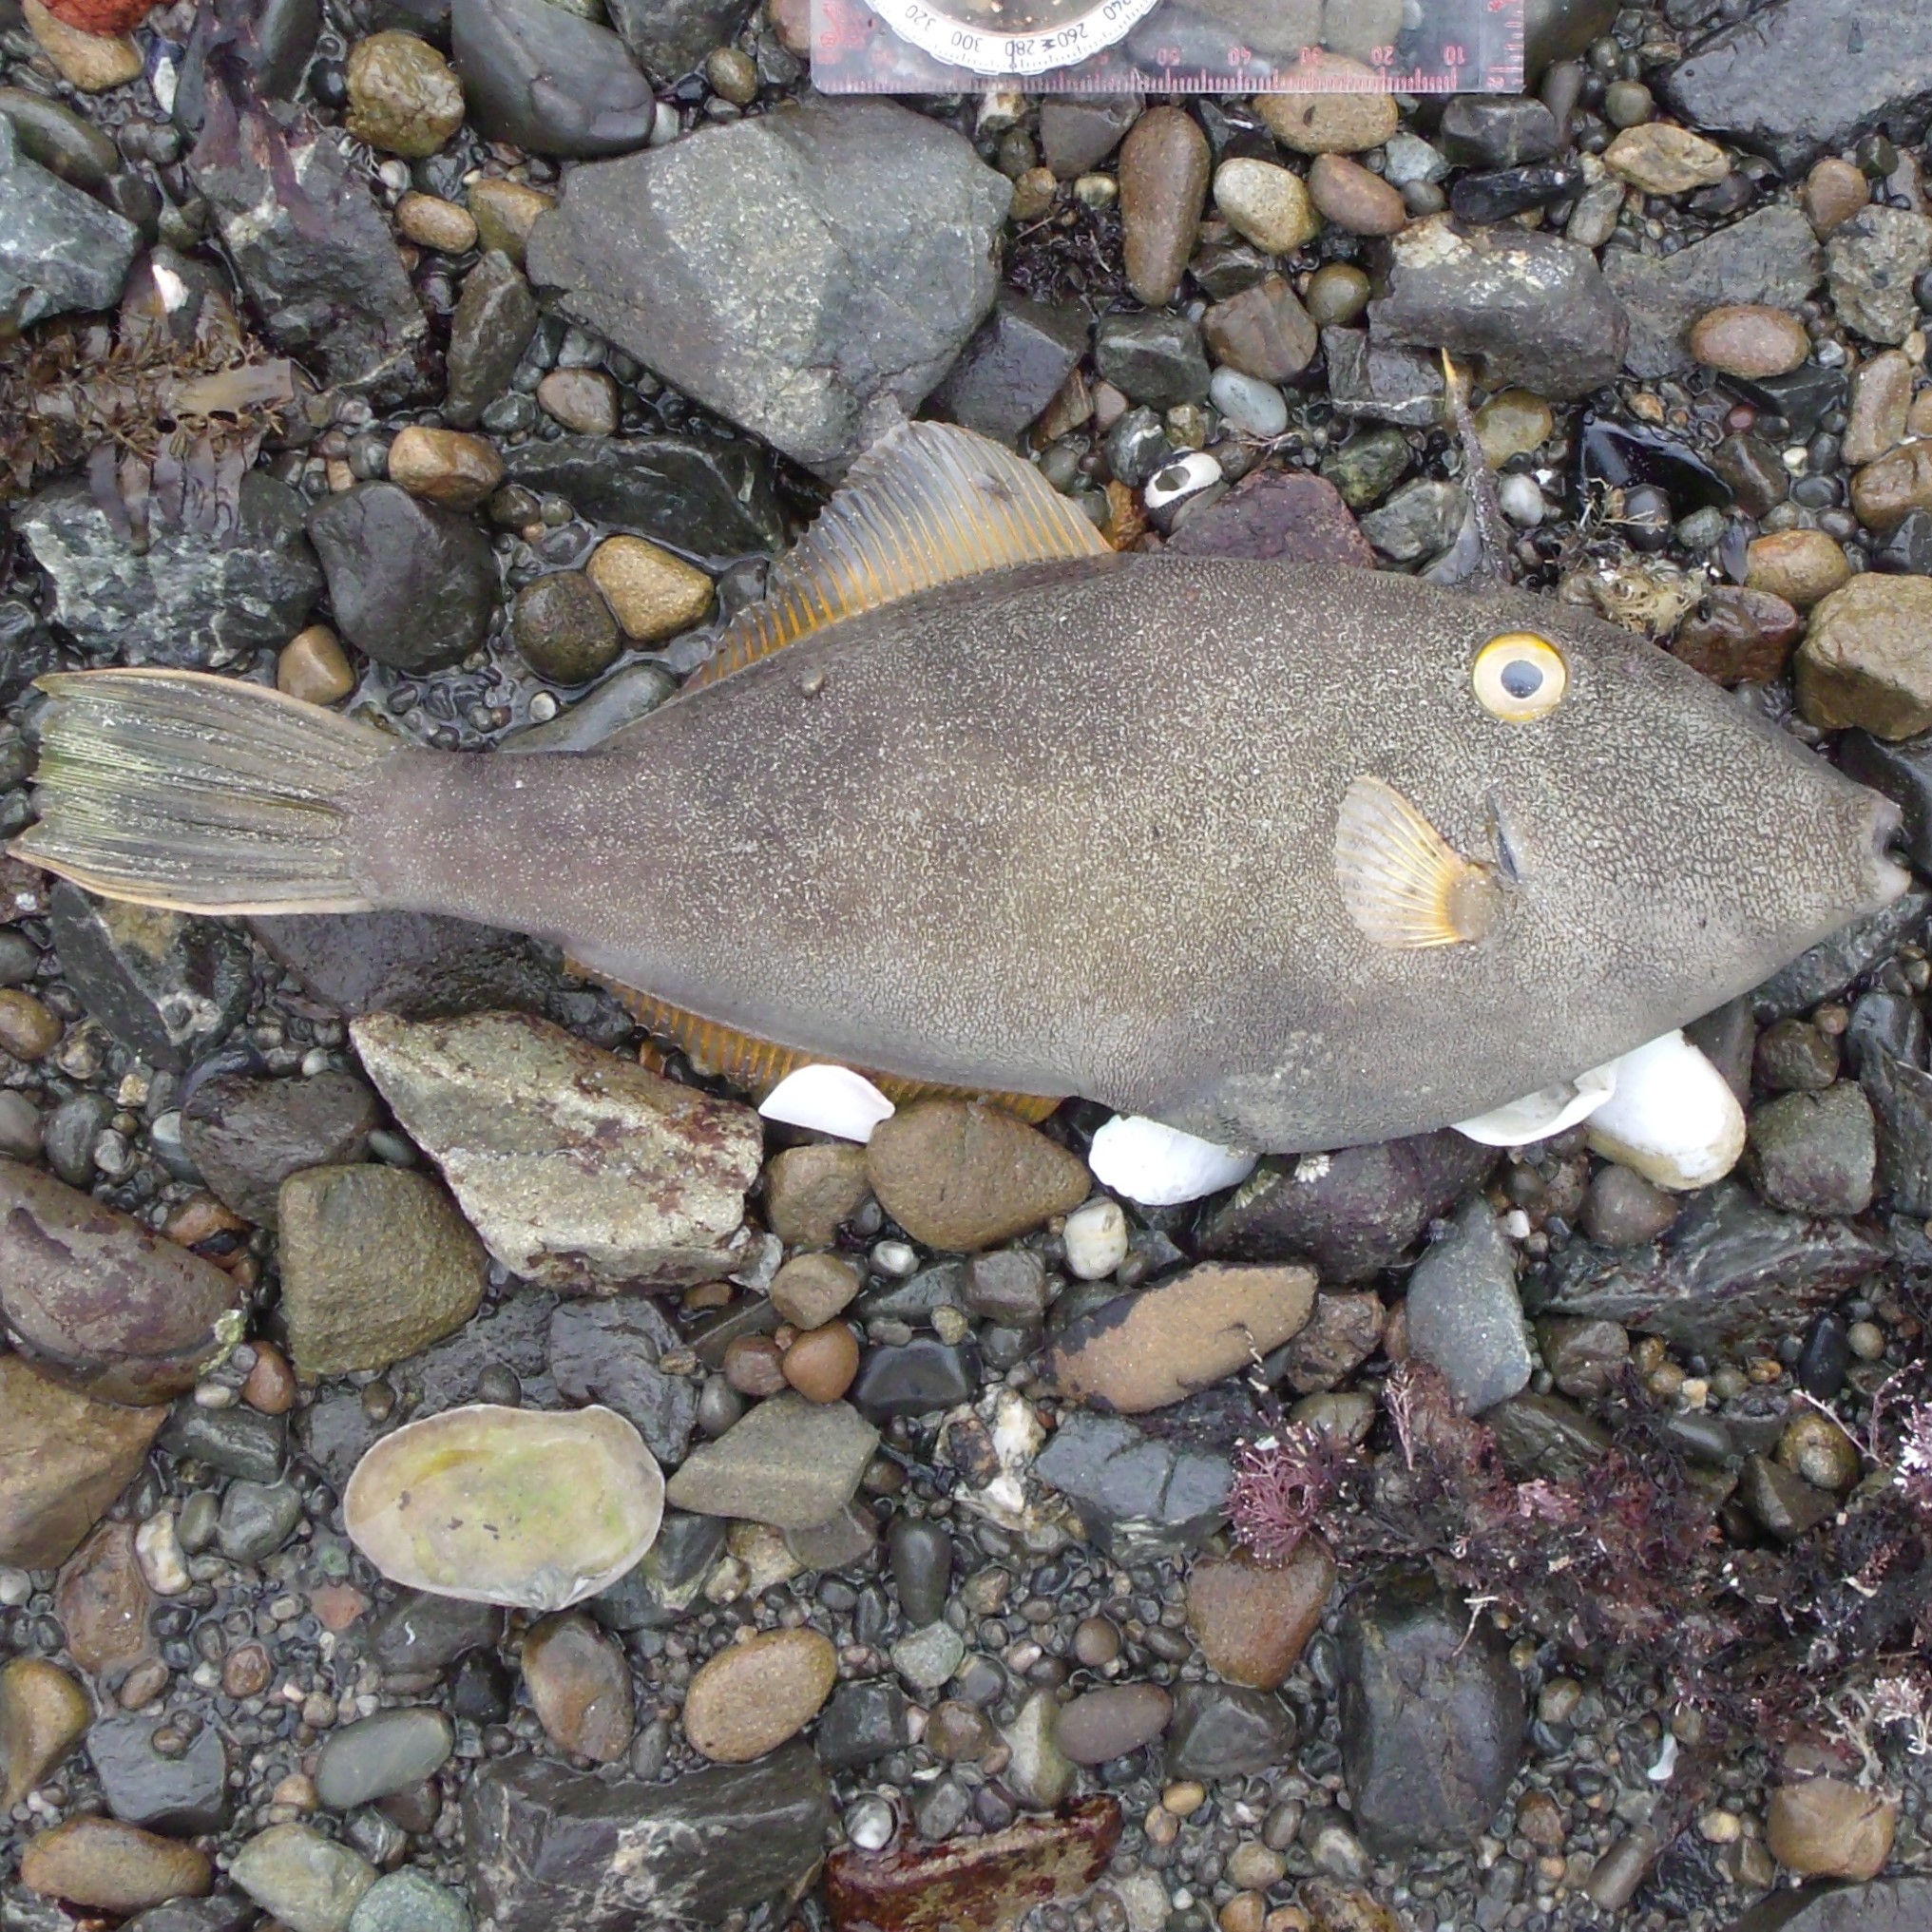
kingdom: Animalia
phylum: Chordata
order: Tetraodontiformes
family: Monacanthidae
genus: Meuschenia
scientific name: Meuschenia scaber
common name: Cosmopolitan leatherjacket
